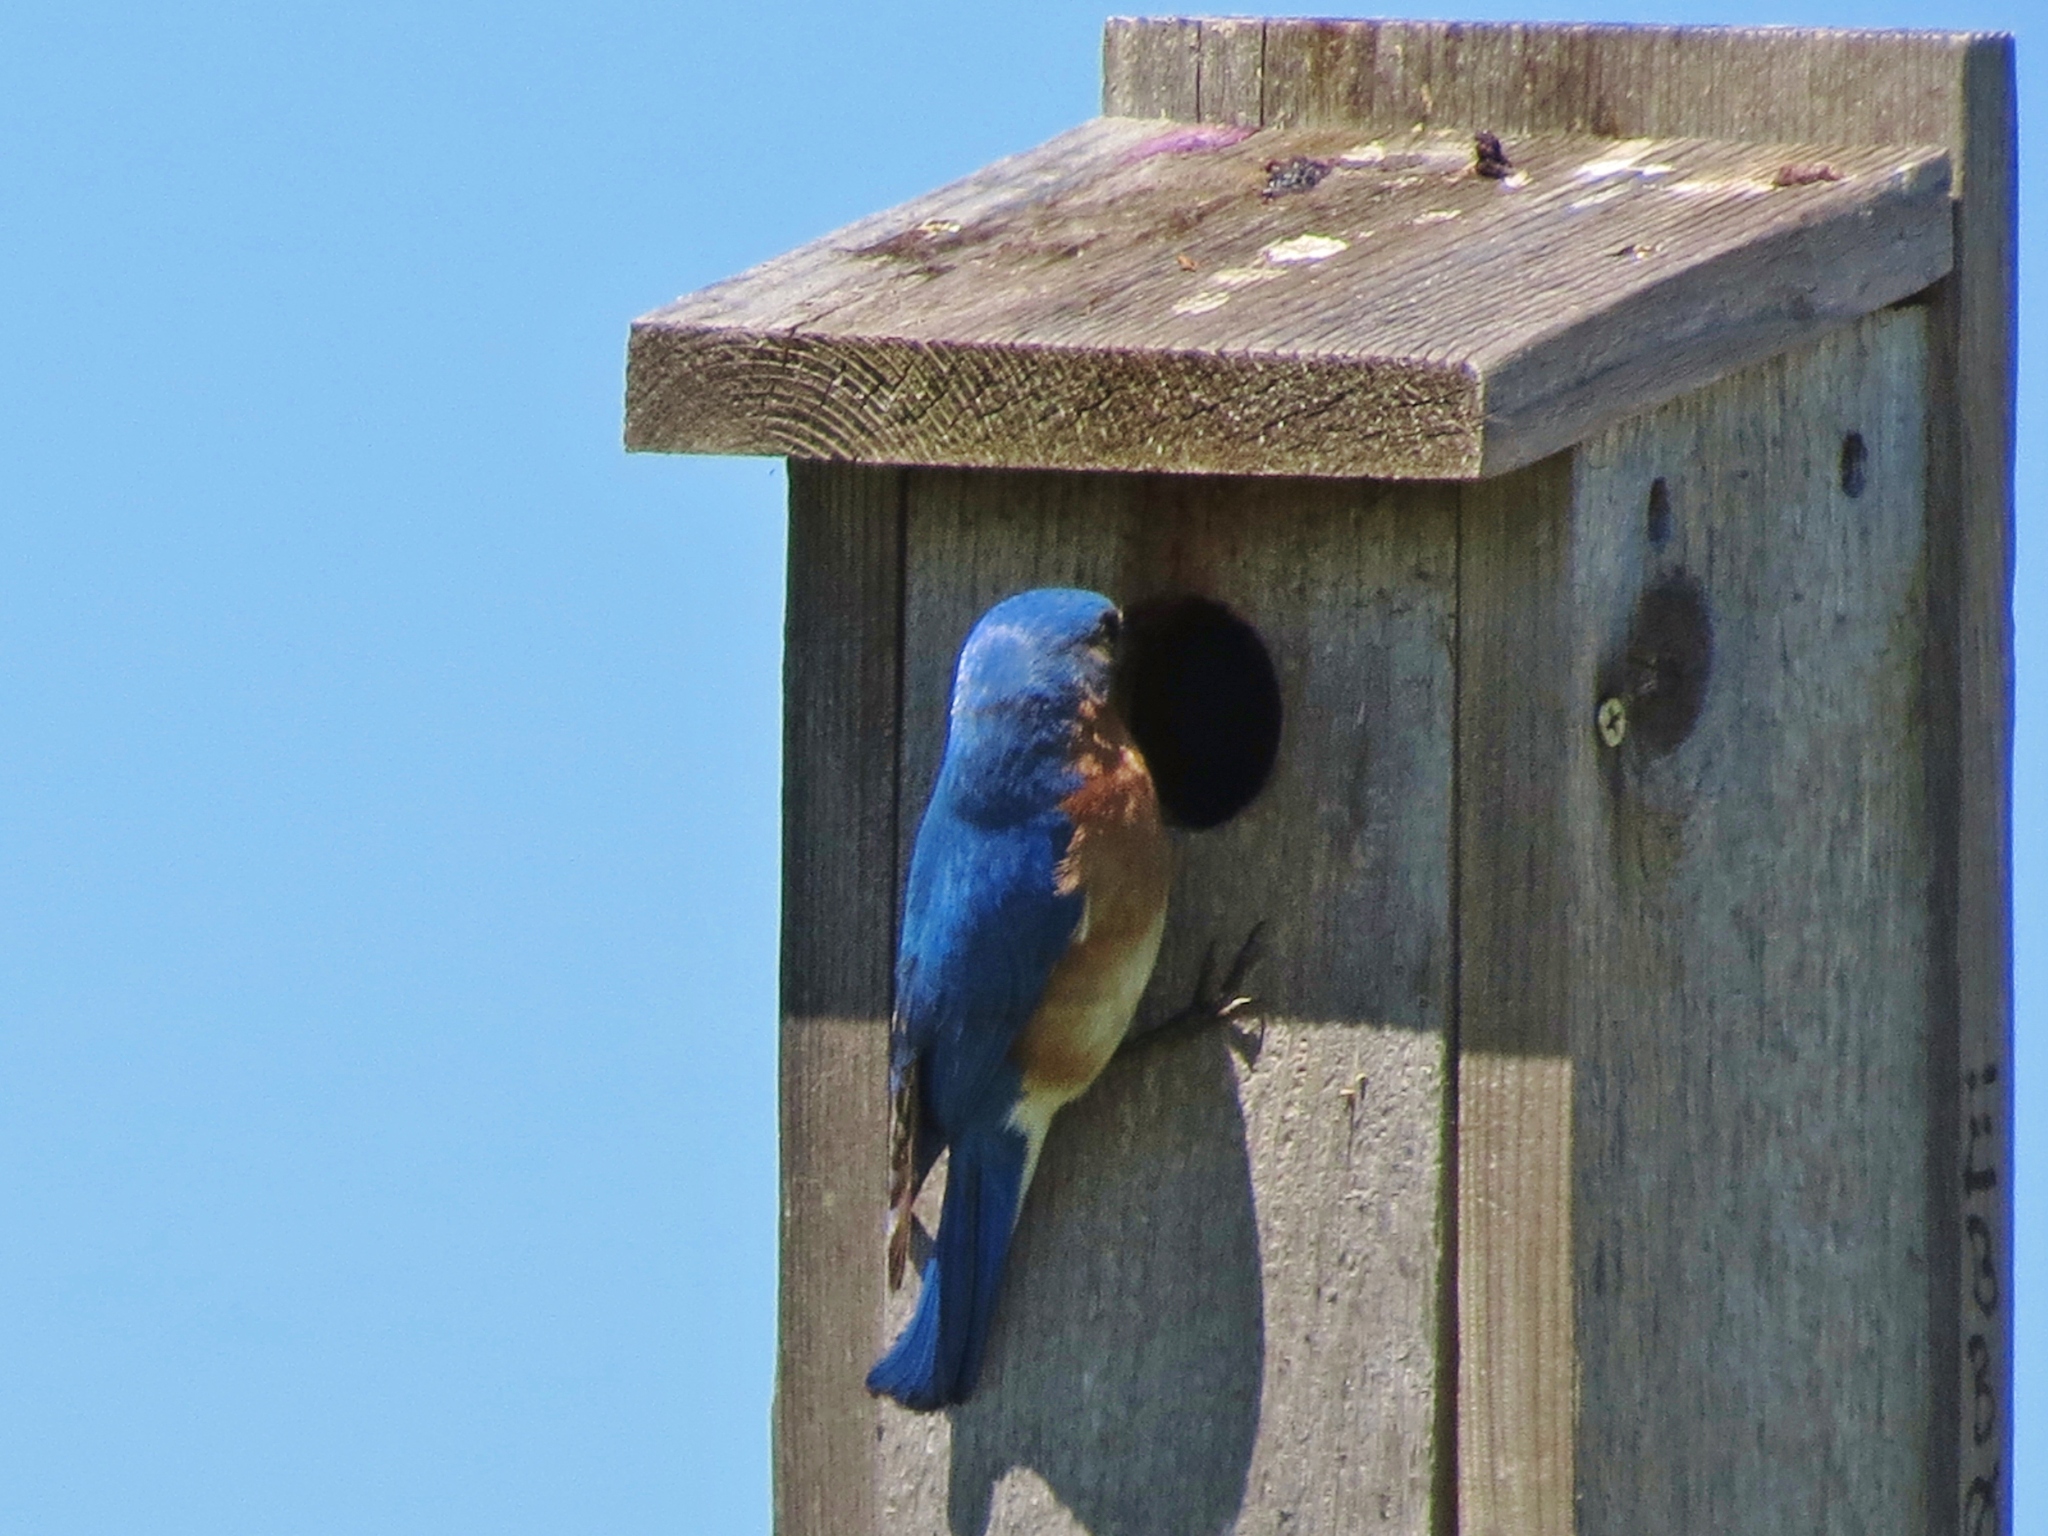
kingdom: Animalia
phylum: Chordata
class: Aves
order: Passeriformes
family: Turdidae
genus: Sialia
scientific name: Sialia sialis
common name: Eastern bluebird
